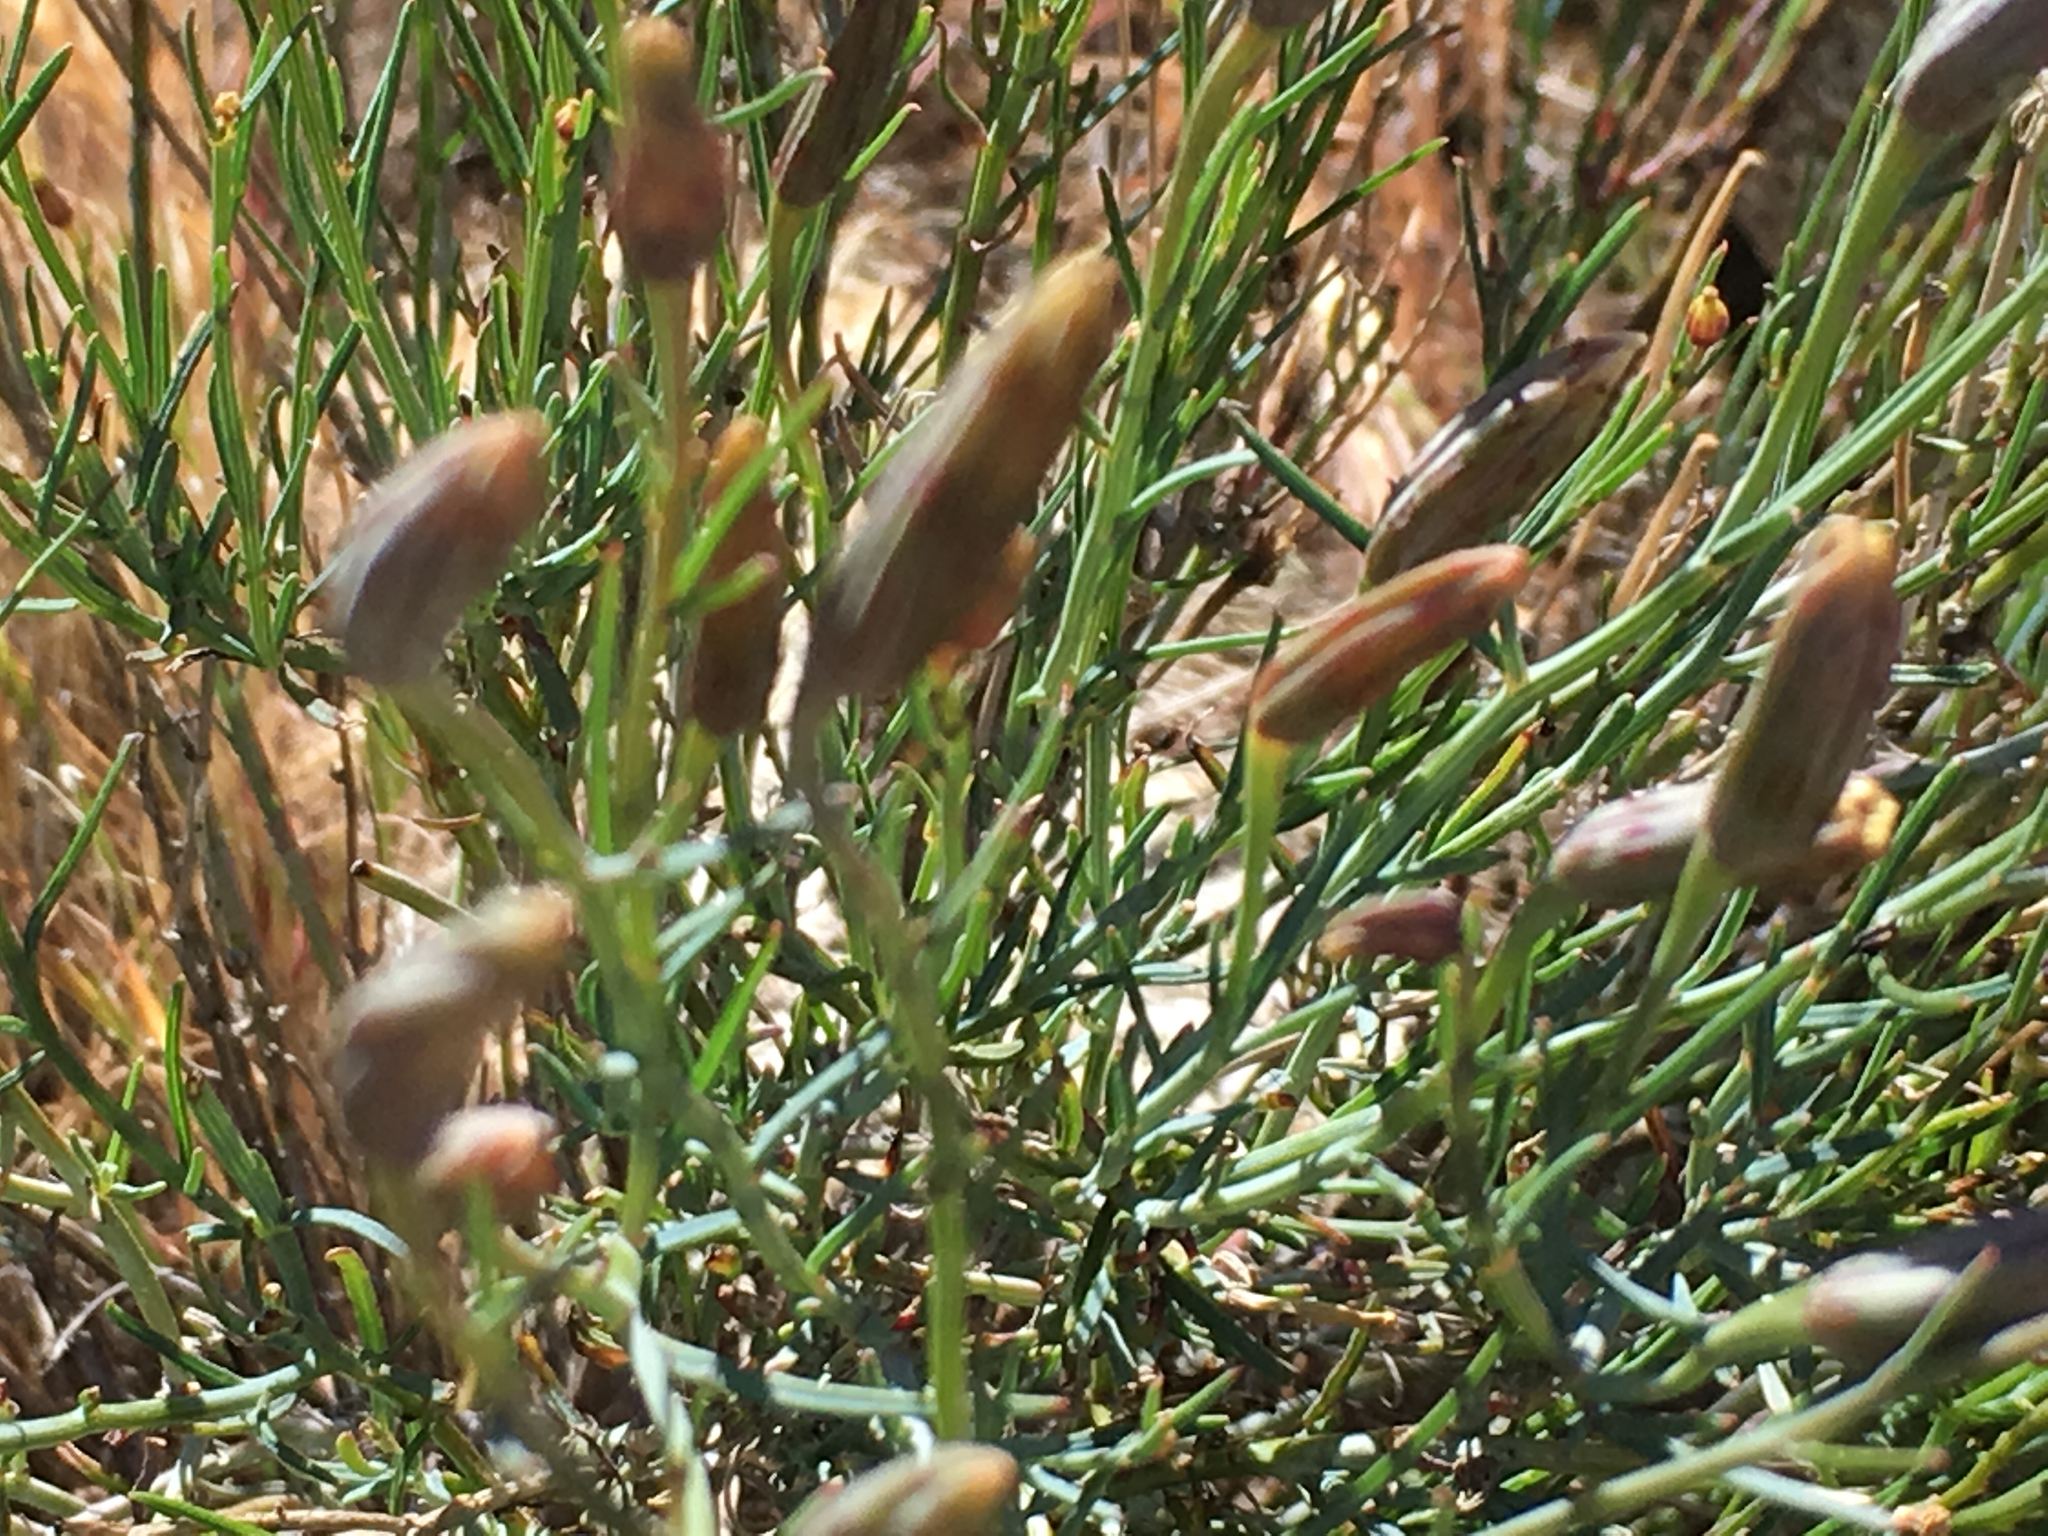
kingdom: Plantae
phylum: Tracheophyta
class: Magnoliopsida
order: Asterales
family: Asteraceae
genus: Porophyllum
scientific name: Porophyllum gracile
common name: Odora
